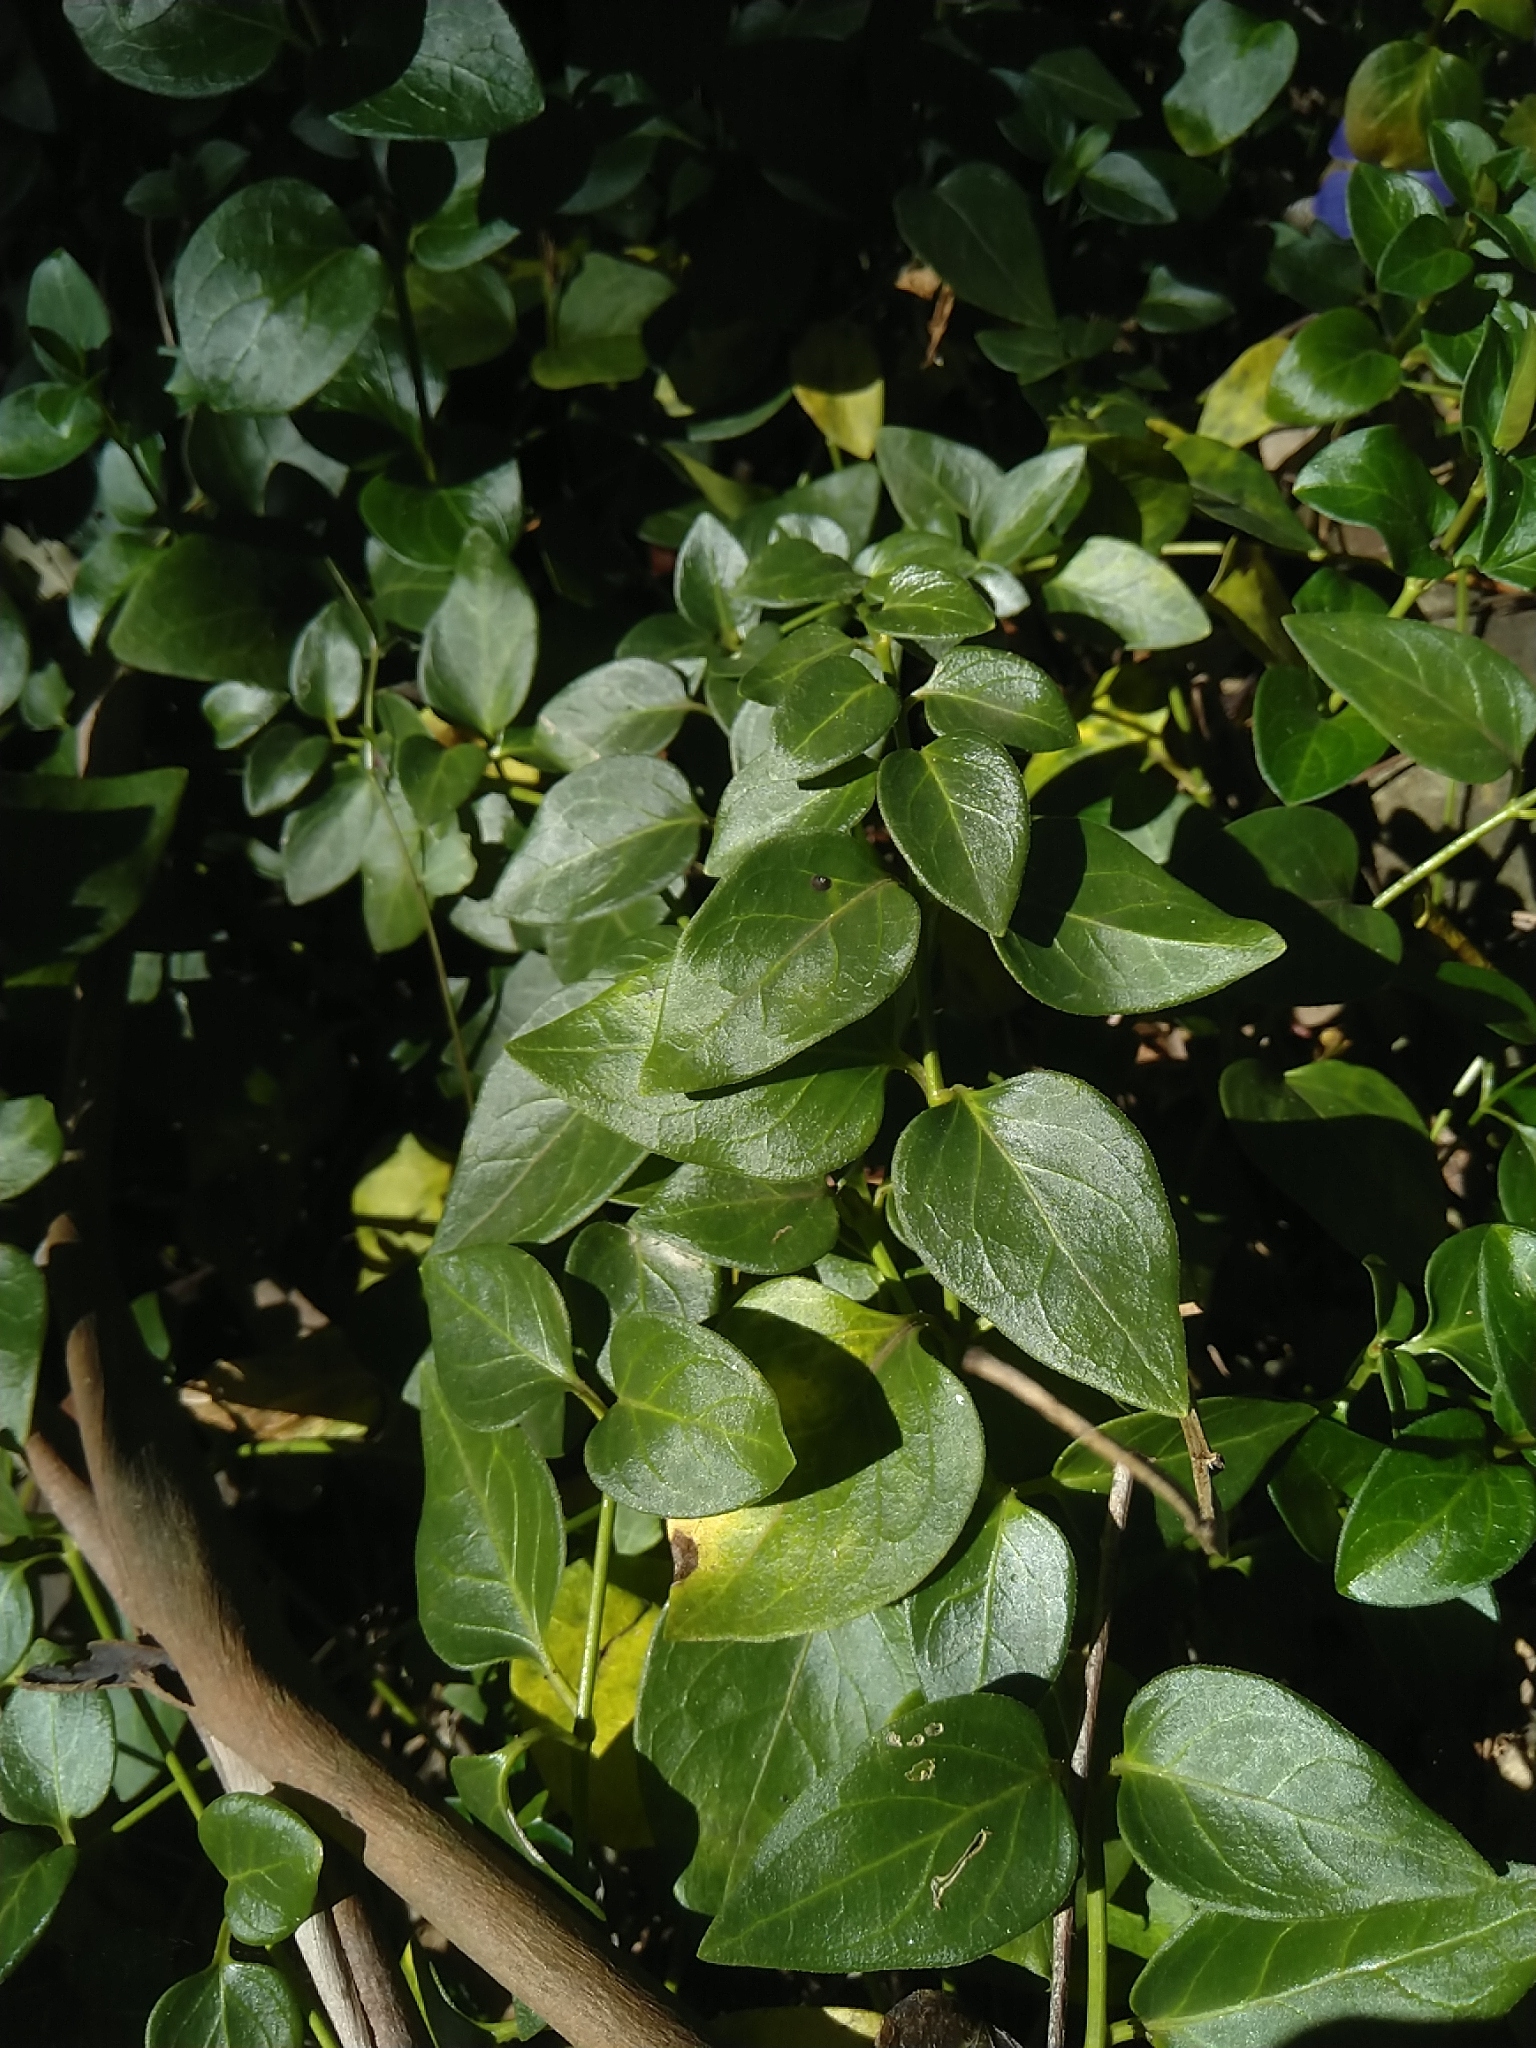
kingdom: Plantae
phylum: Tracheophyta
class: Magnoliopsida
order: Gentianales
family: Apocynaceae
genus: Vinca
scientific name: Vinca major
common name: Greater periwinkle
